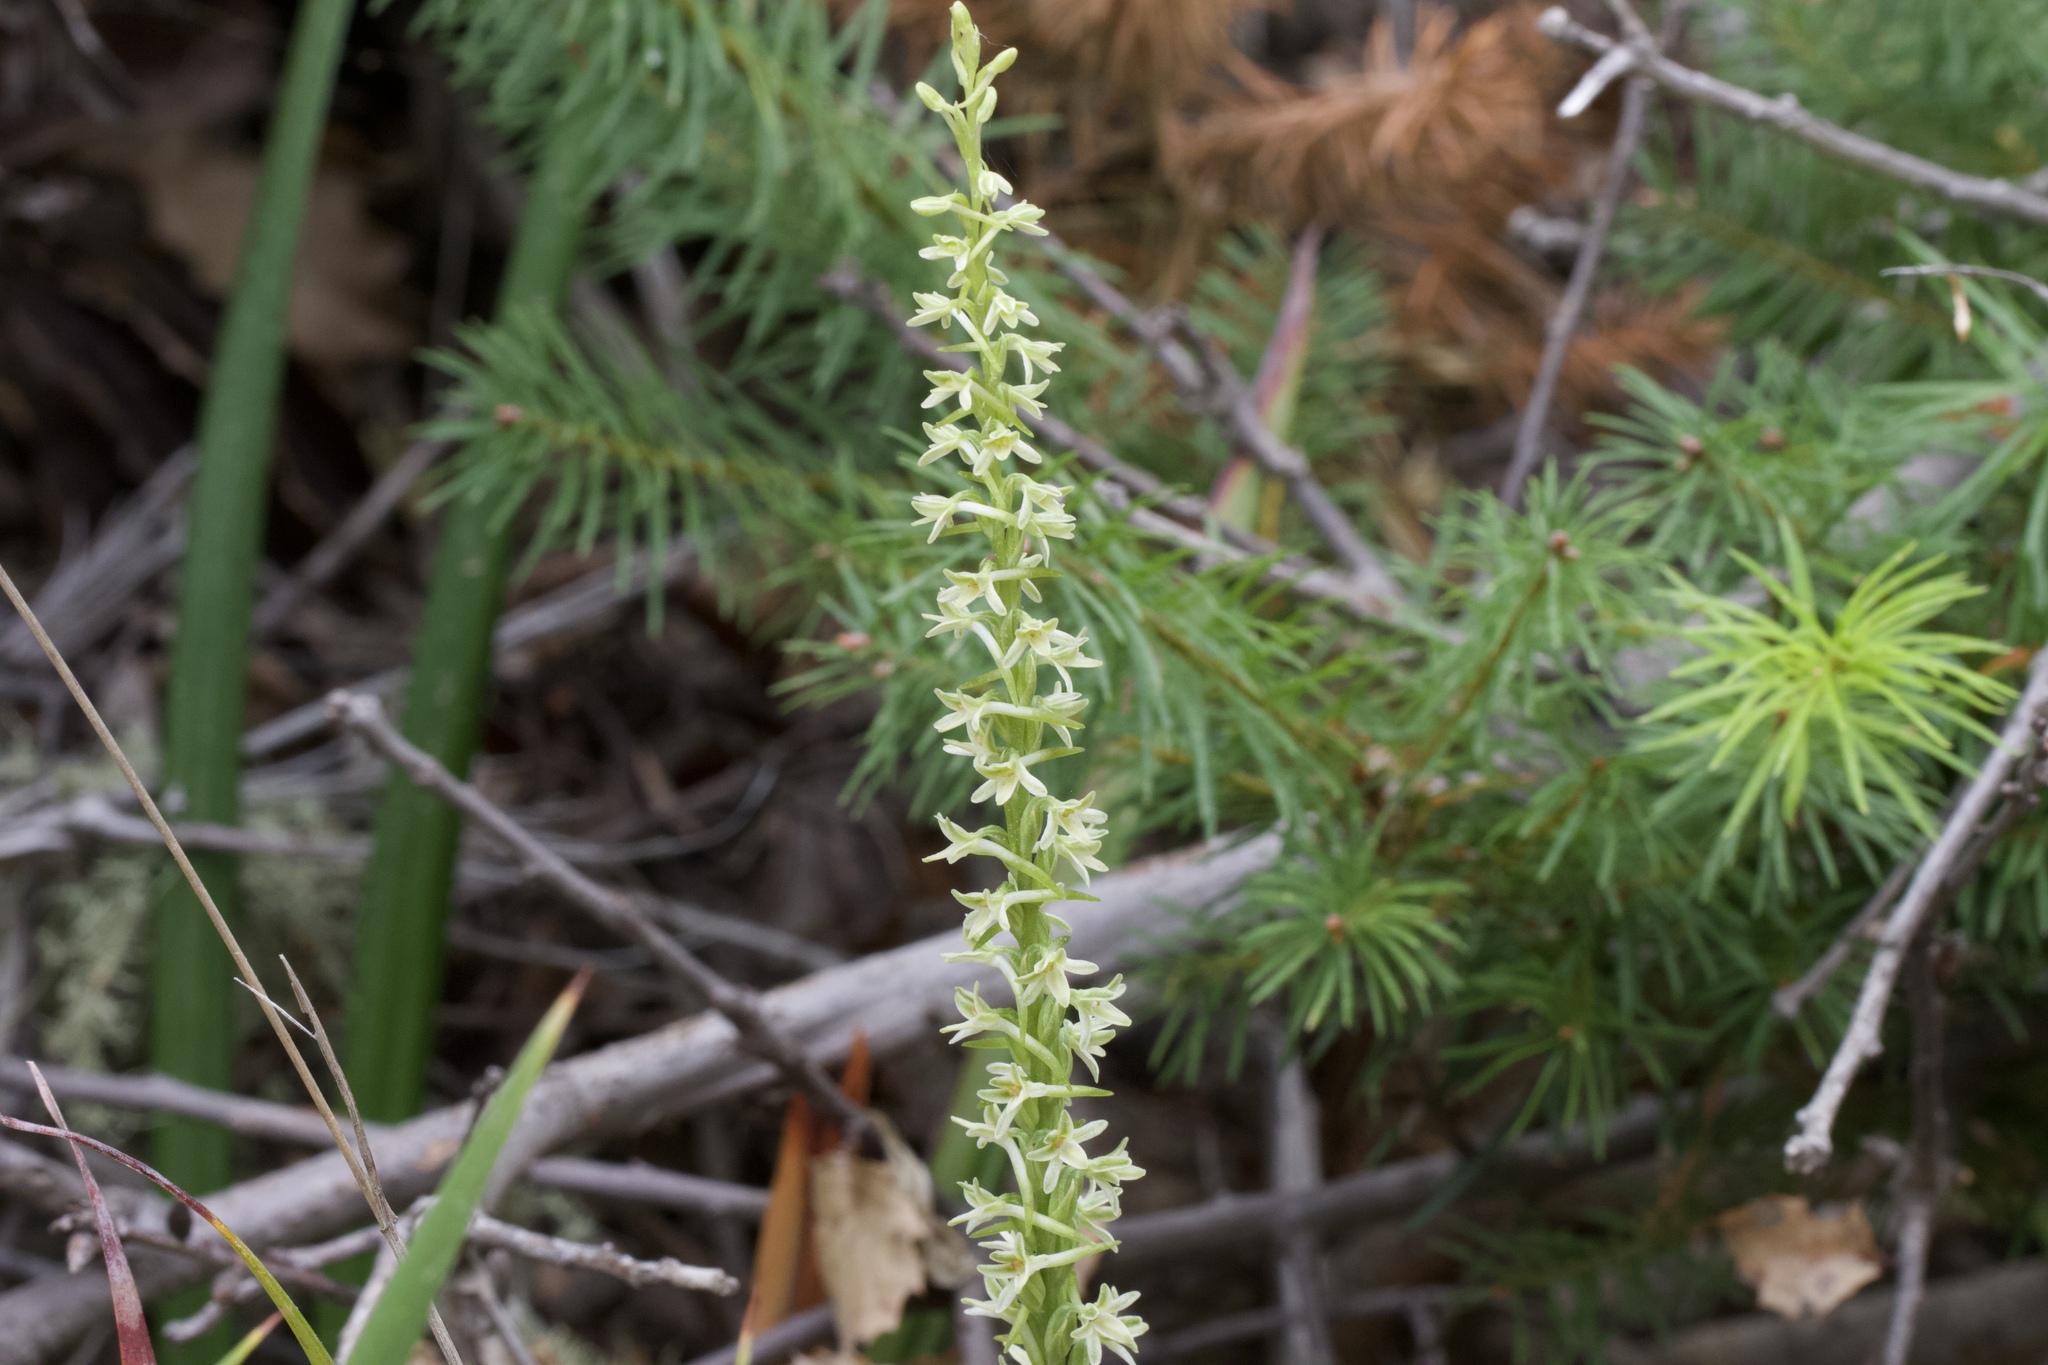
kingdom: Plantae
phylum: Tracheophyta
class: Liliopsida
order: Asparagales
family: Orchidaceae
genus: Platanthera
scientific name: Platanthera transversa
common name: Royal rein orchid
